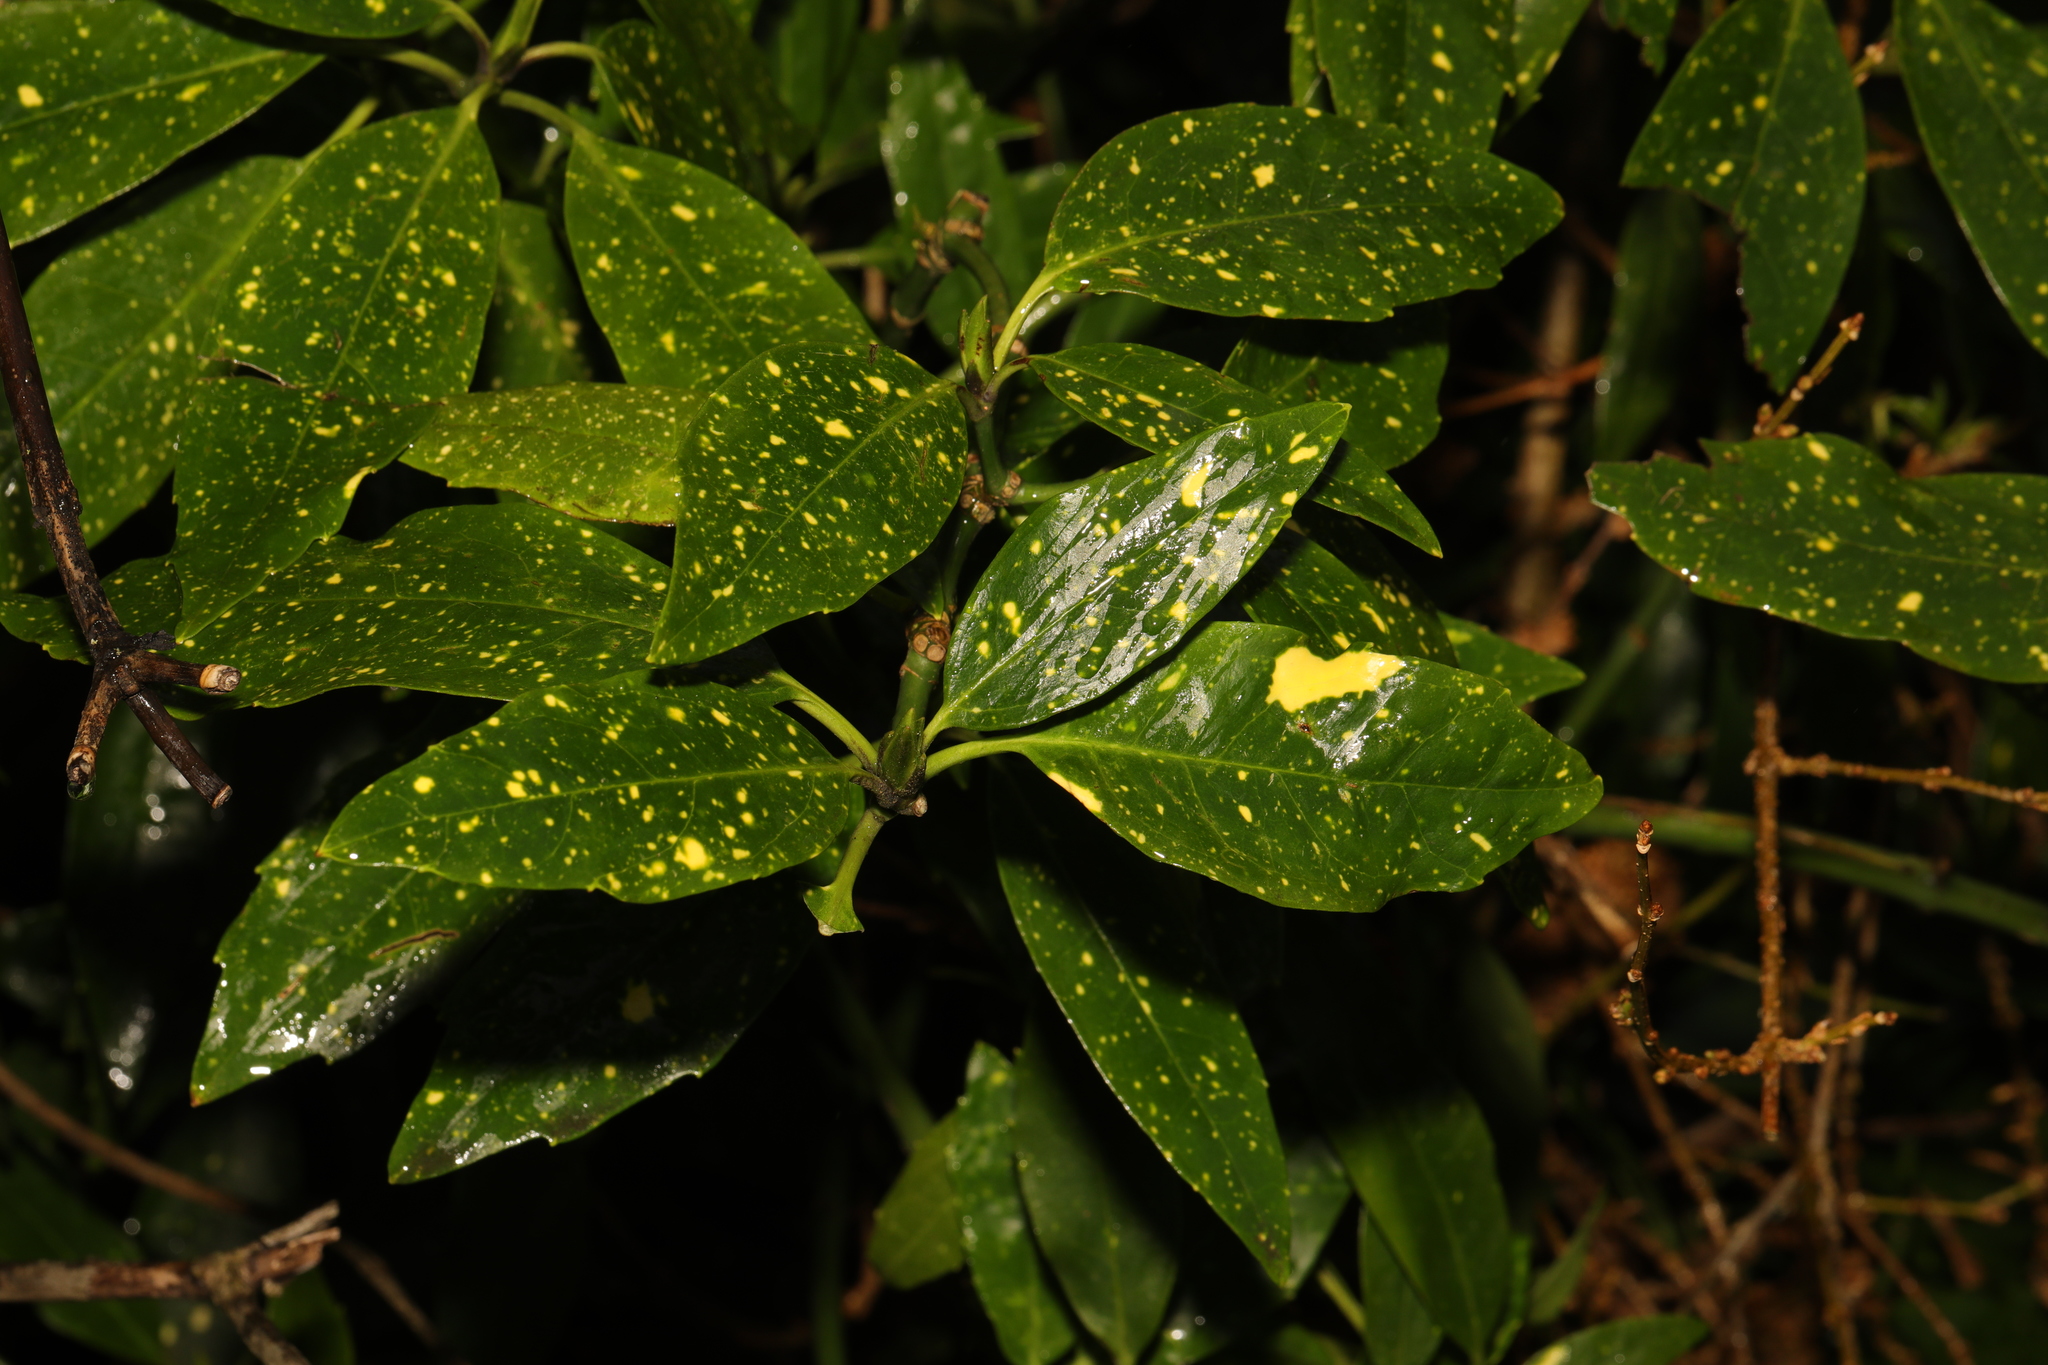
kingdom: Plantae
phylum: Tracheophyta
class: Magnoliopsida
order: Garryales
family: Garryaceae
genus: Aucuba
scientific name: Aucuba japonica
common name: Spotted-laurel
